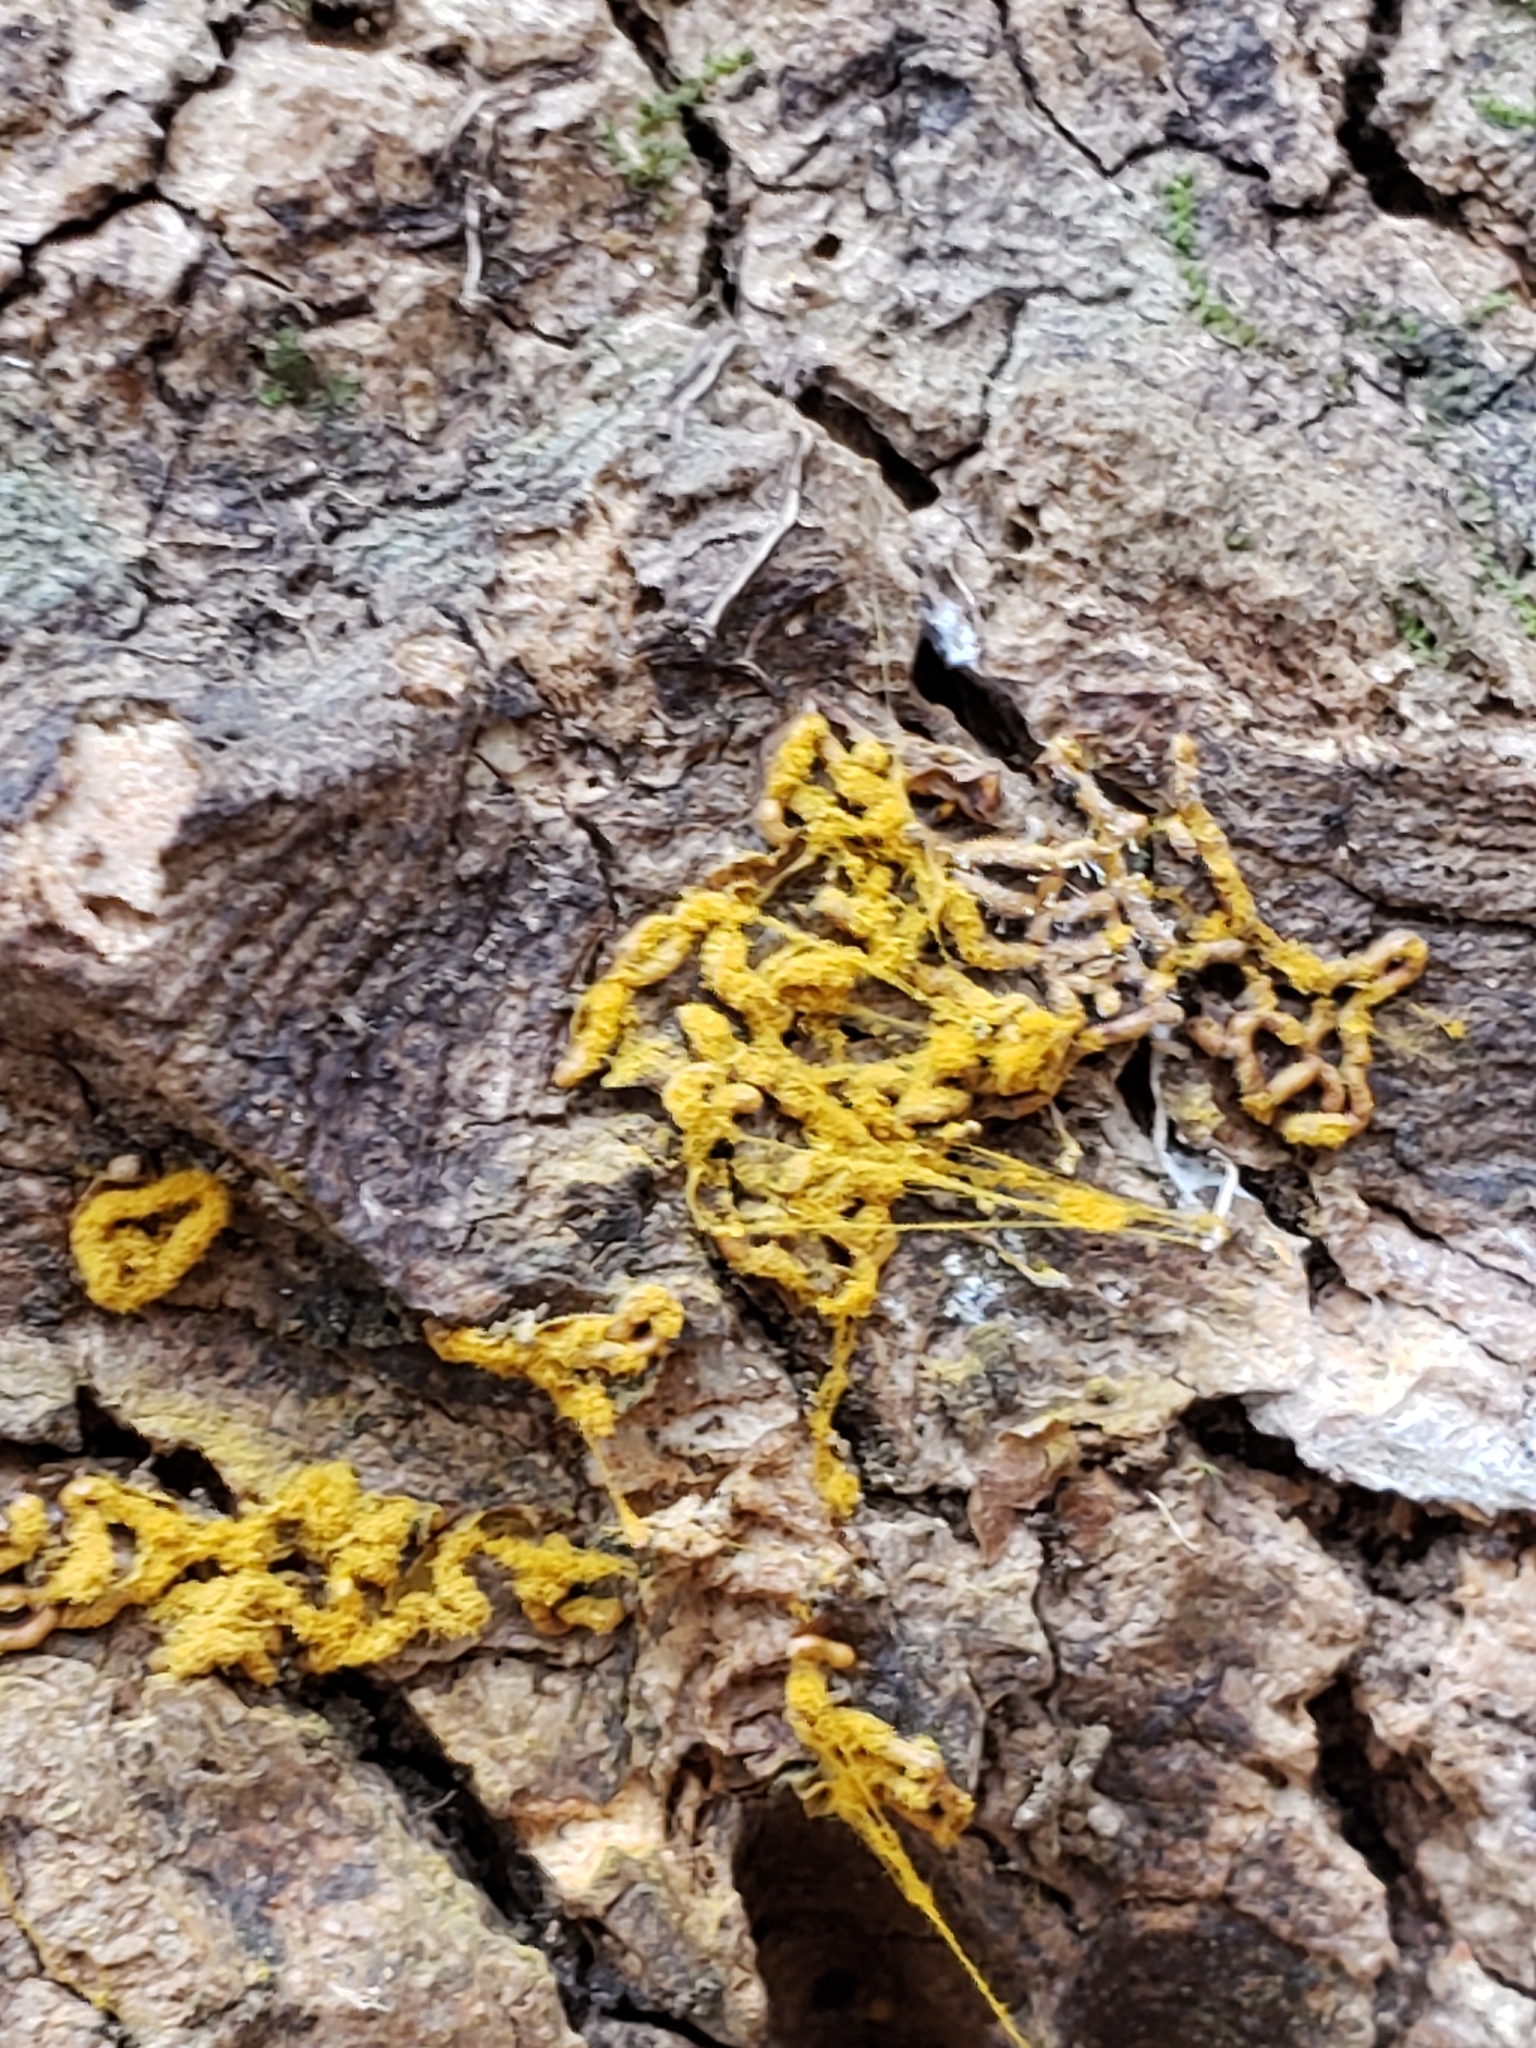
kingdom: Protozoa
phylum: Mycetozoa
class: Myxomycetes
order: Trichiales
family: Arcyriaceae
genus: Hemitrichia
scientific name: Hemitrichia serpula
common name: Pretzel slime mold
